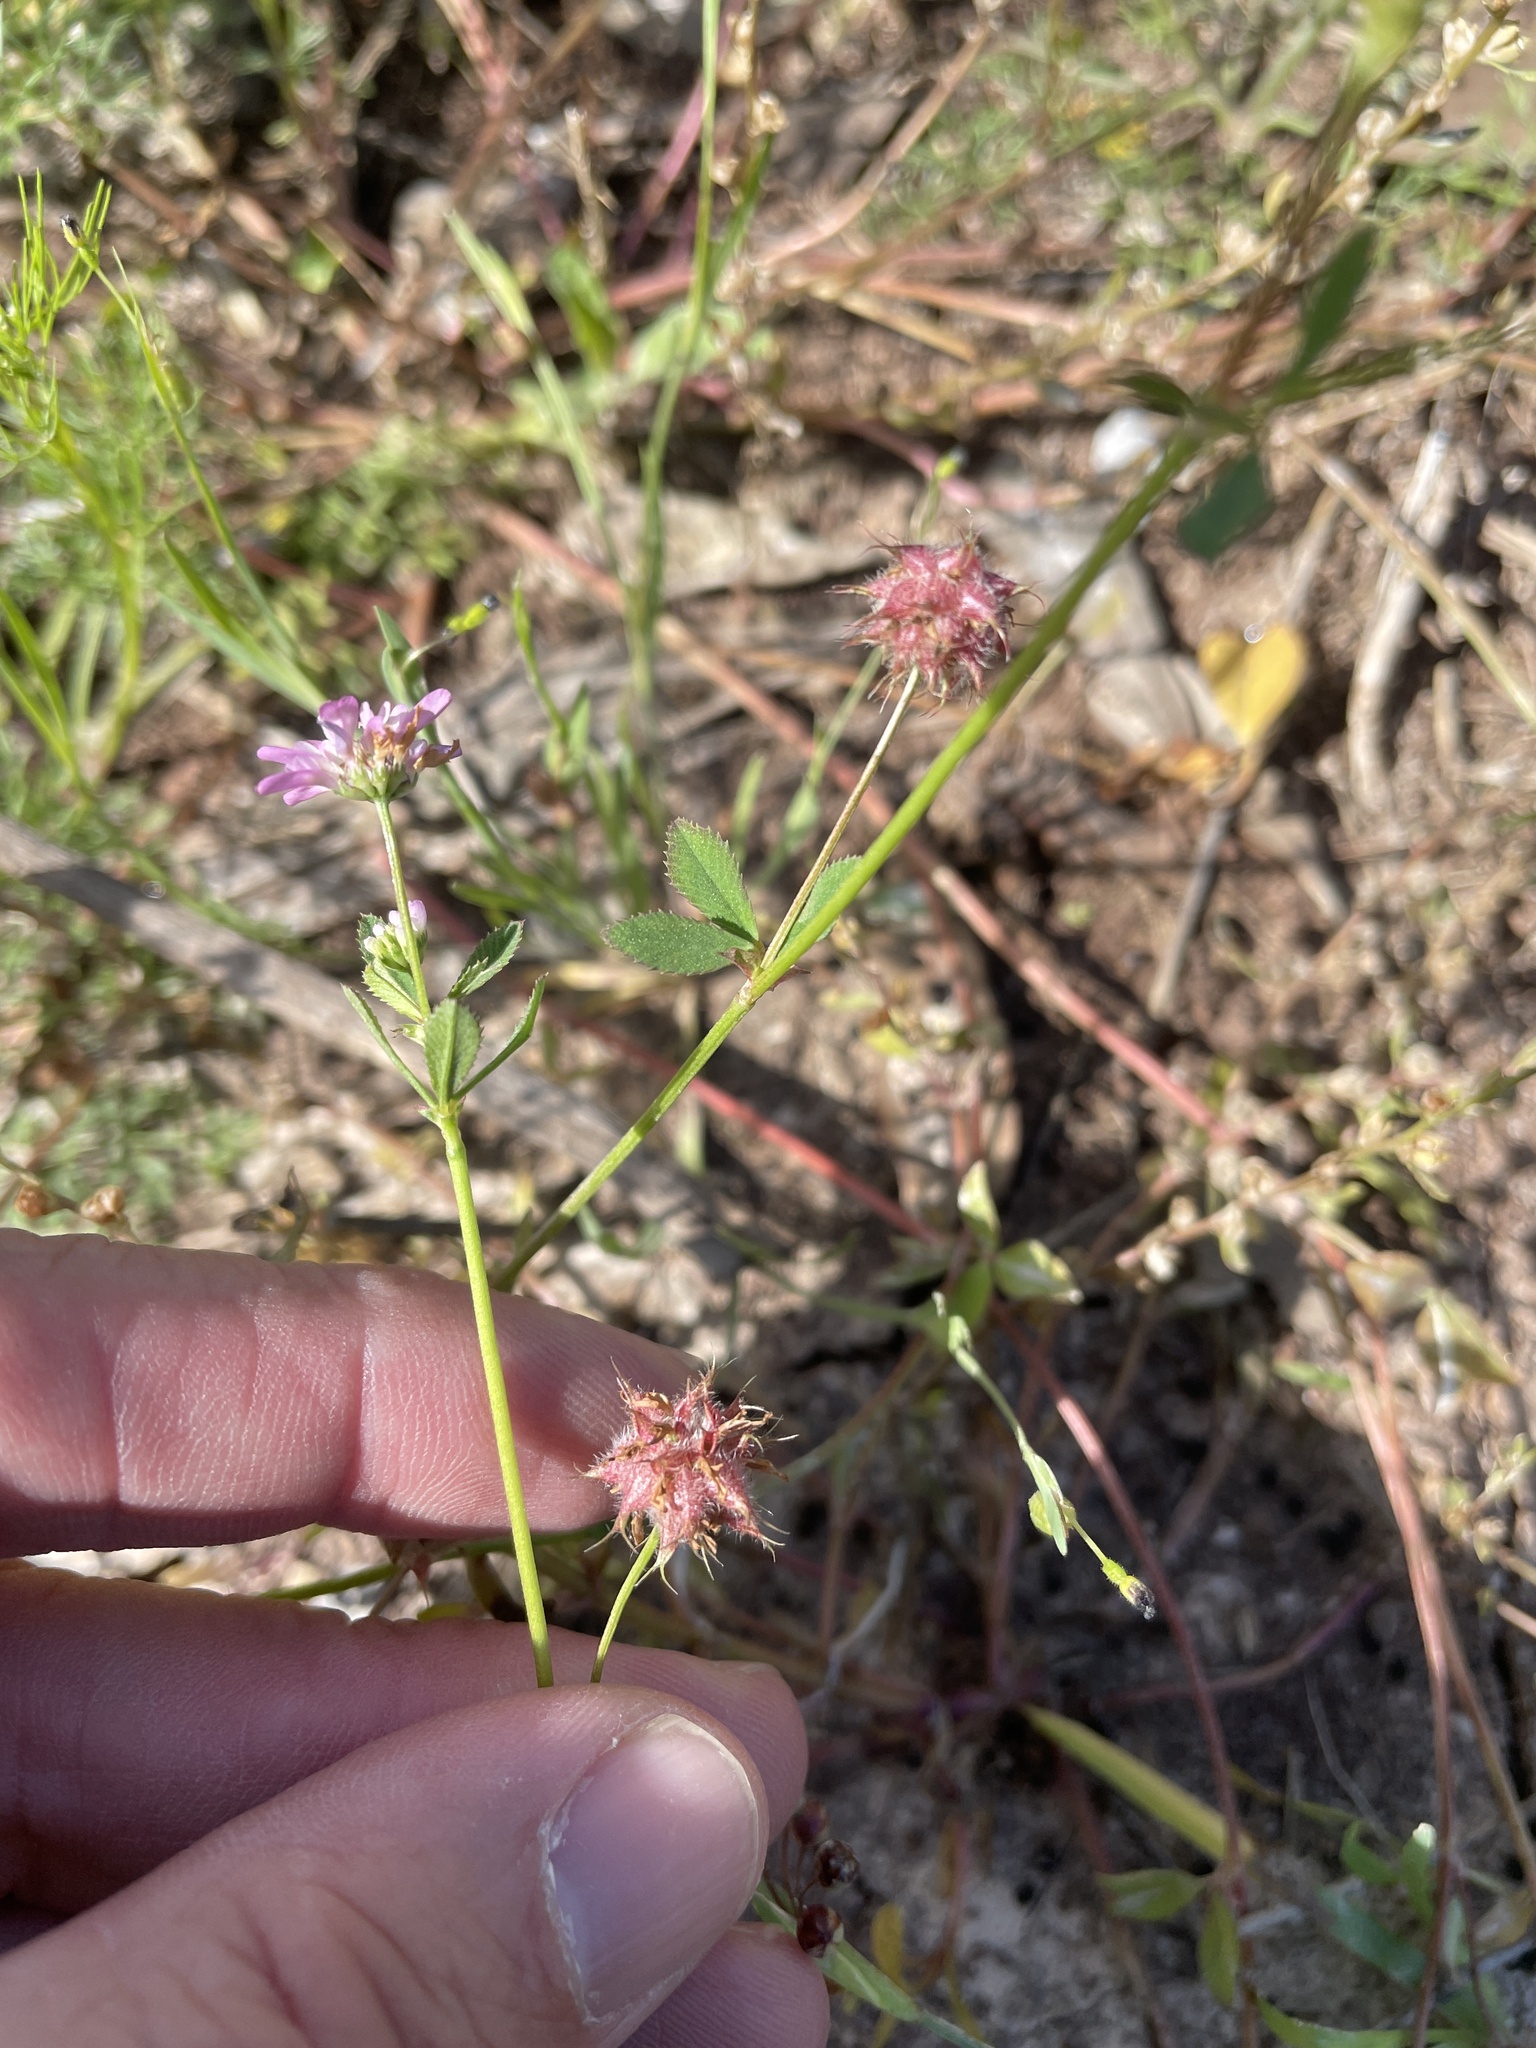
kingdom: Plantae
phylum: Tracheophyta
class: Magnoliopsida
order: Fabales
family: Fabaceae
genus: Trifolium
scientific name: Trifolium resupinatum
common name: Reversed clover
